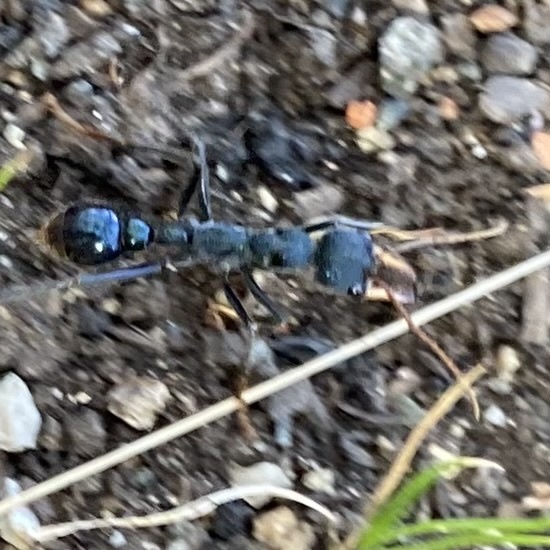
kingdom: Animalia
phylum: Arthropoda
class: Insecta
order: Hymenoptera
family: Formicidae
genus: Myrmecia
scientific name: Myrmecia tarsata
